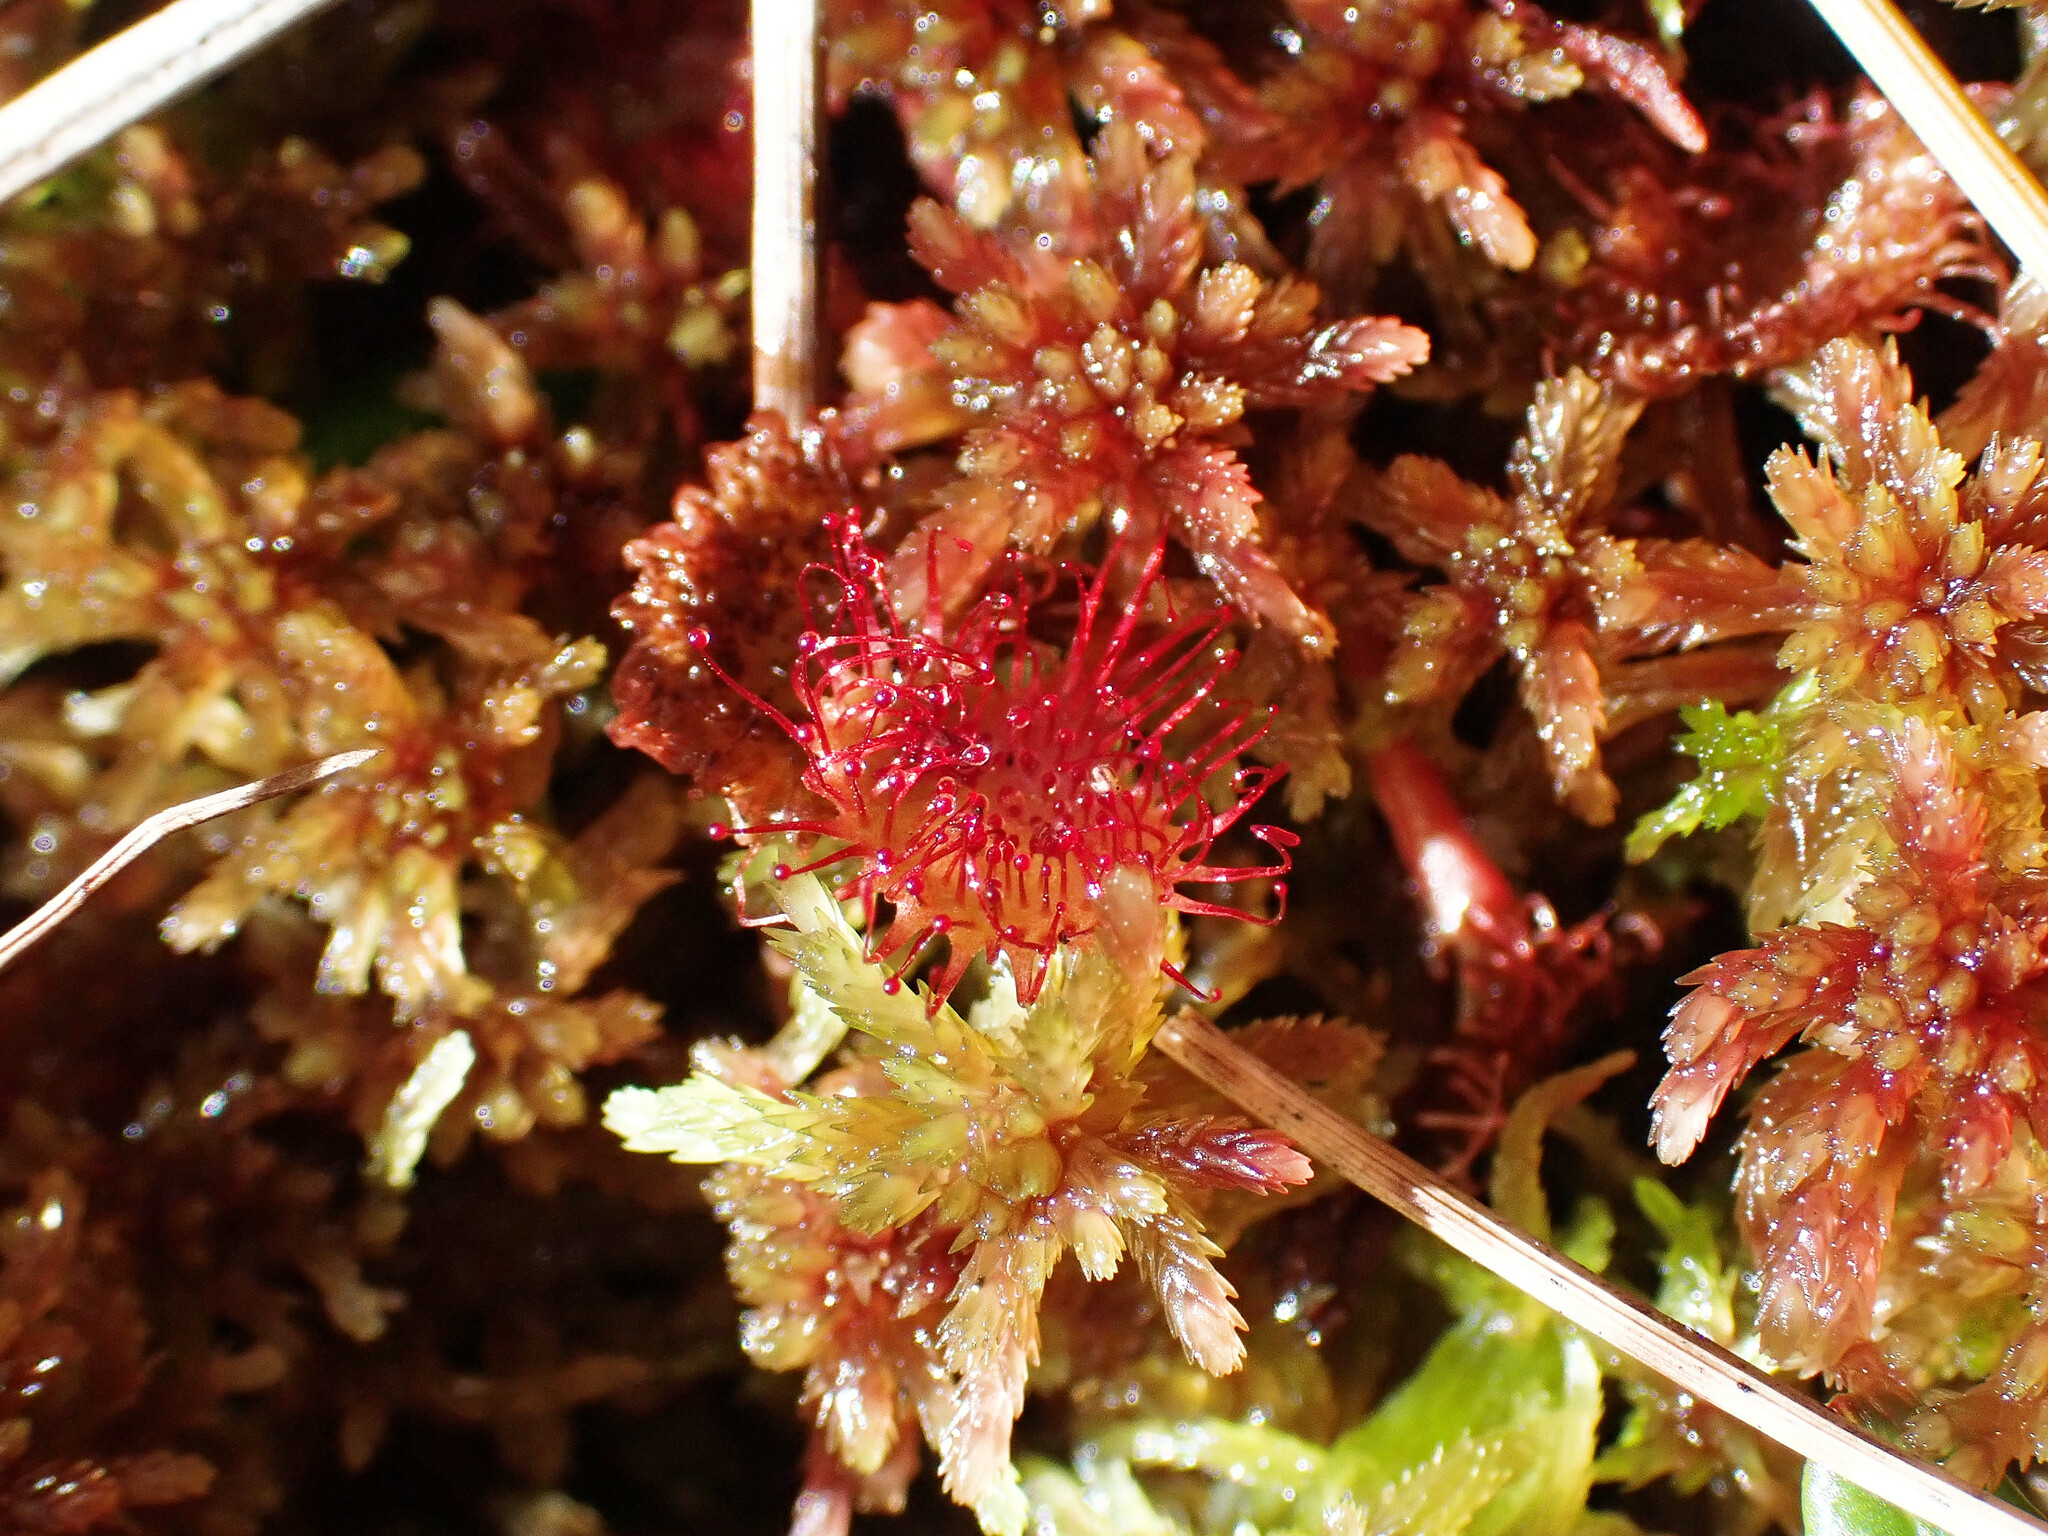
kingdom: Plantae
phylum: Tracheophyta
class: Magnoliopsida
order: Caryophyllales
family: Droseraceae
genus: Drosera
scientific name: Drosera rotundifolia
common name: Round-leaved sundew
